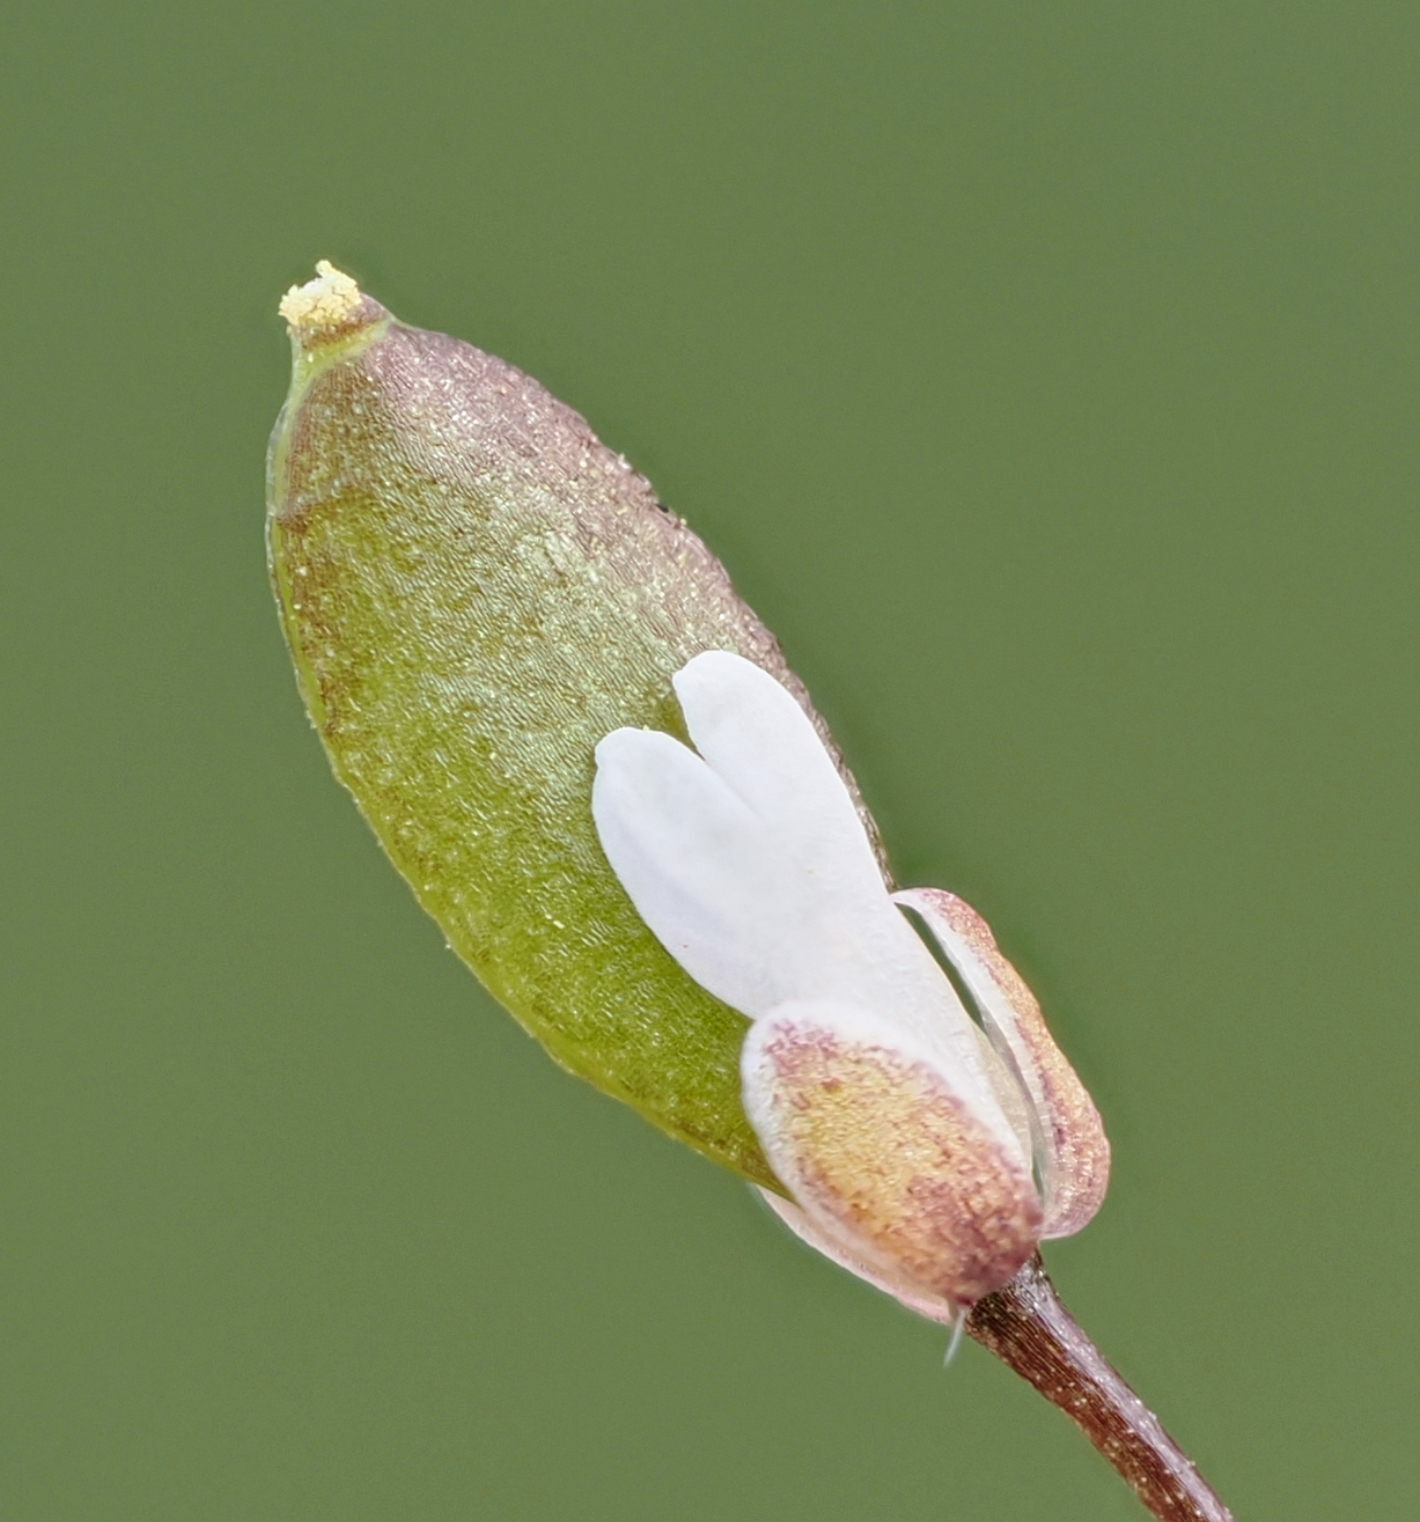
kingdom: Plantae
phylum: Tracheophyta
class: Magnoliopsida
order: Brassicales
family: Brassicaceae
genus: Draba
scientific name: Draba
